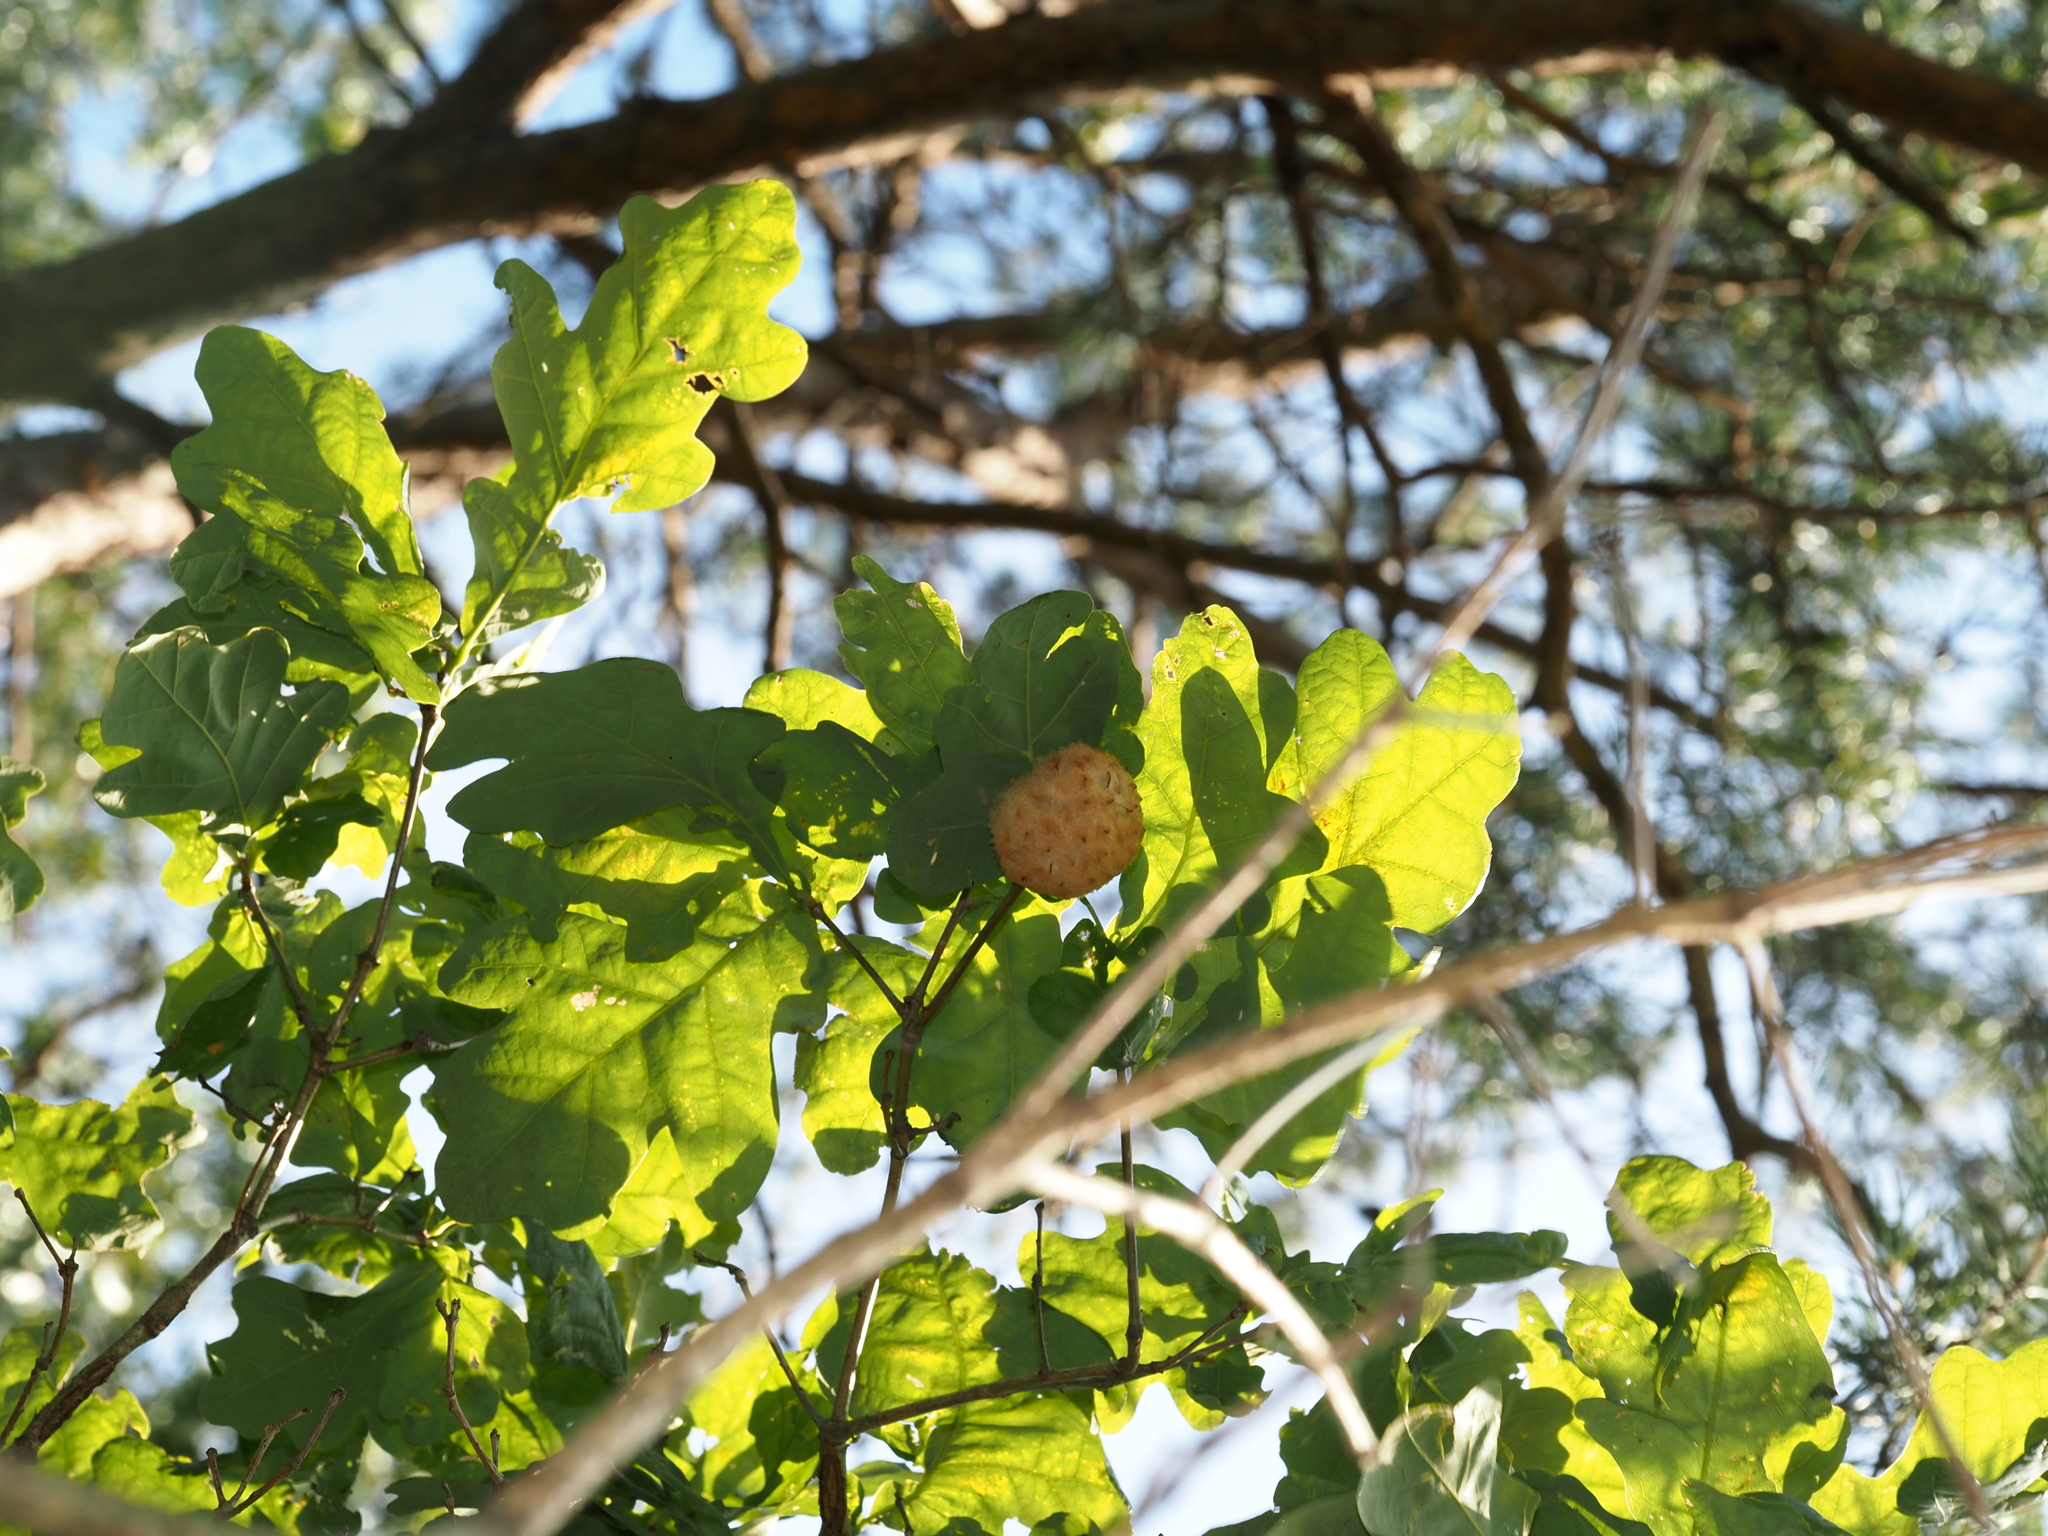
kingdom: Animalia
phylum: Arthropoda
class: Insecta
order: Hymenoptera
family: Cynipidae
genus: Callirhytis
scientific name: Callirhytis
